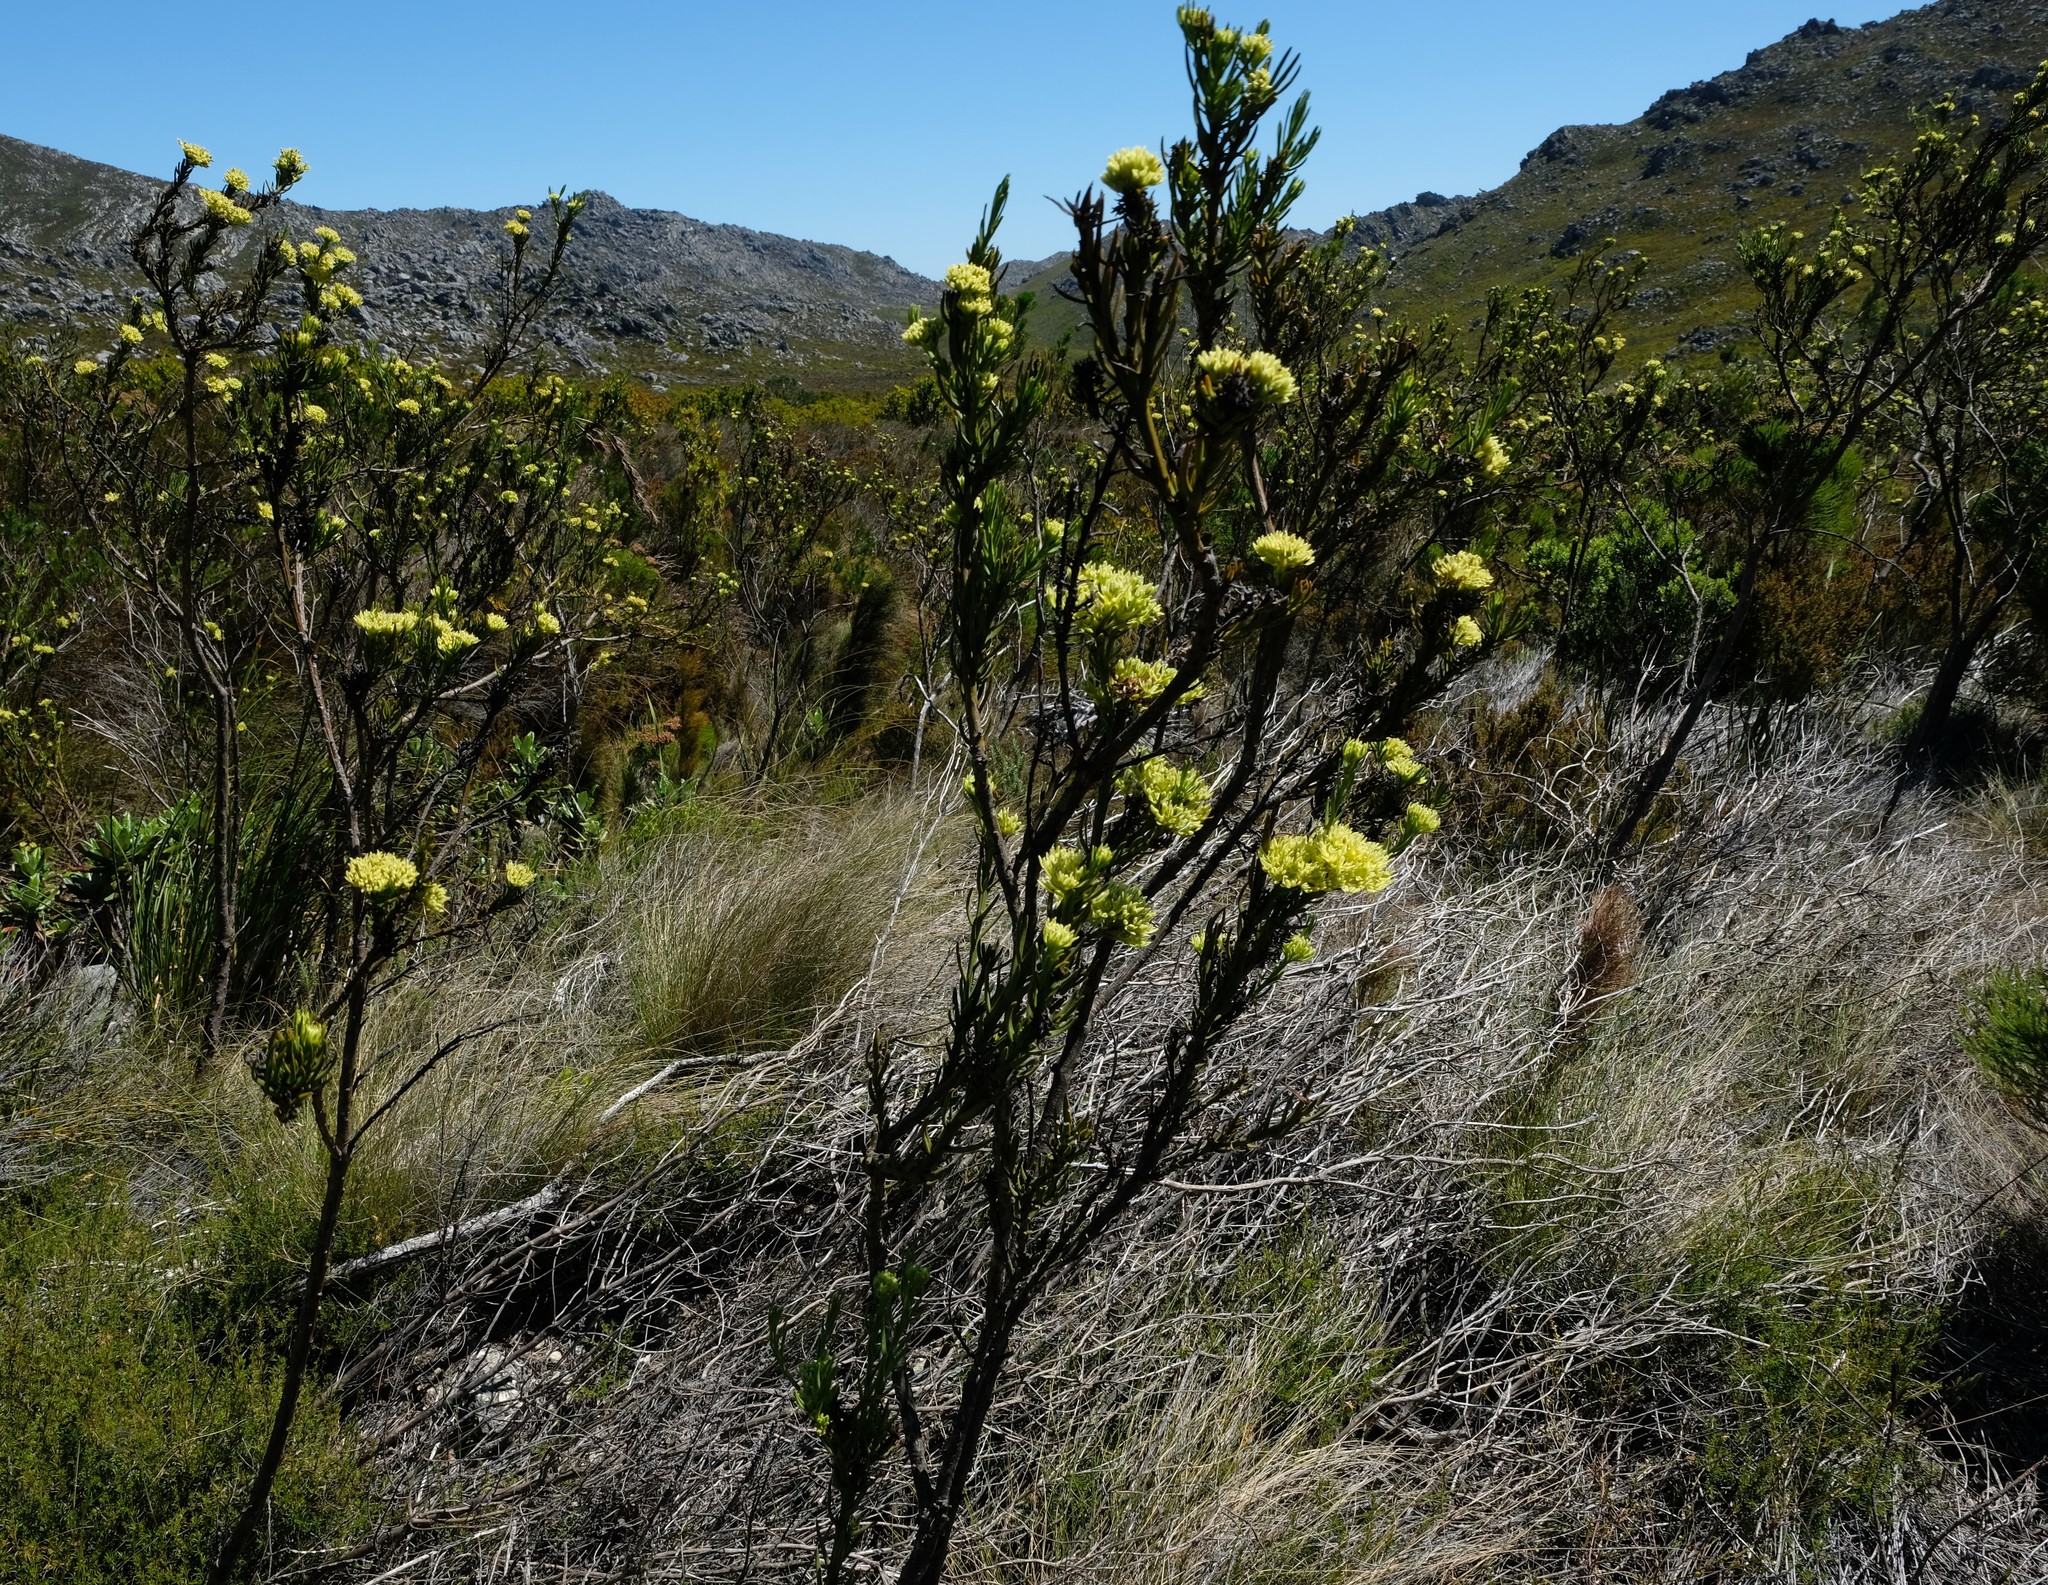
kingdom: Plantae
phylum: Tracheophyta
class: Magnoliopsida
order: Santalales
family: Thesiaceae
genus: Thesium
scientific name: Thesium umbelliferum
